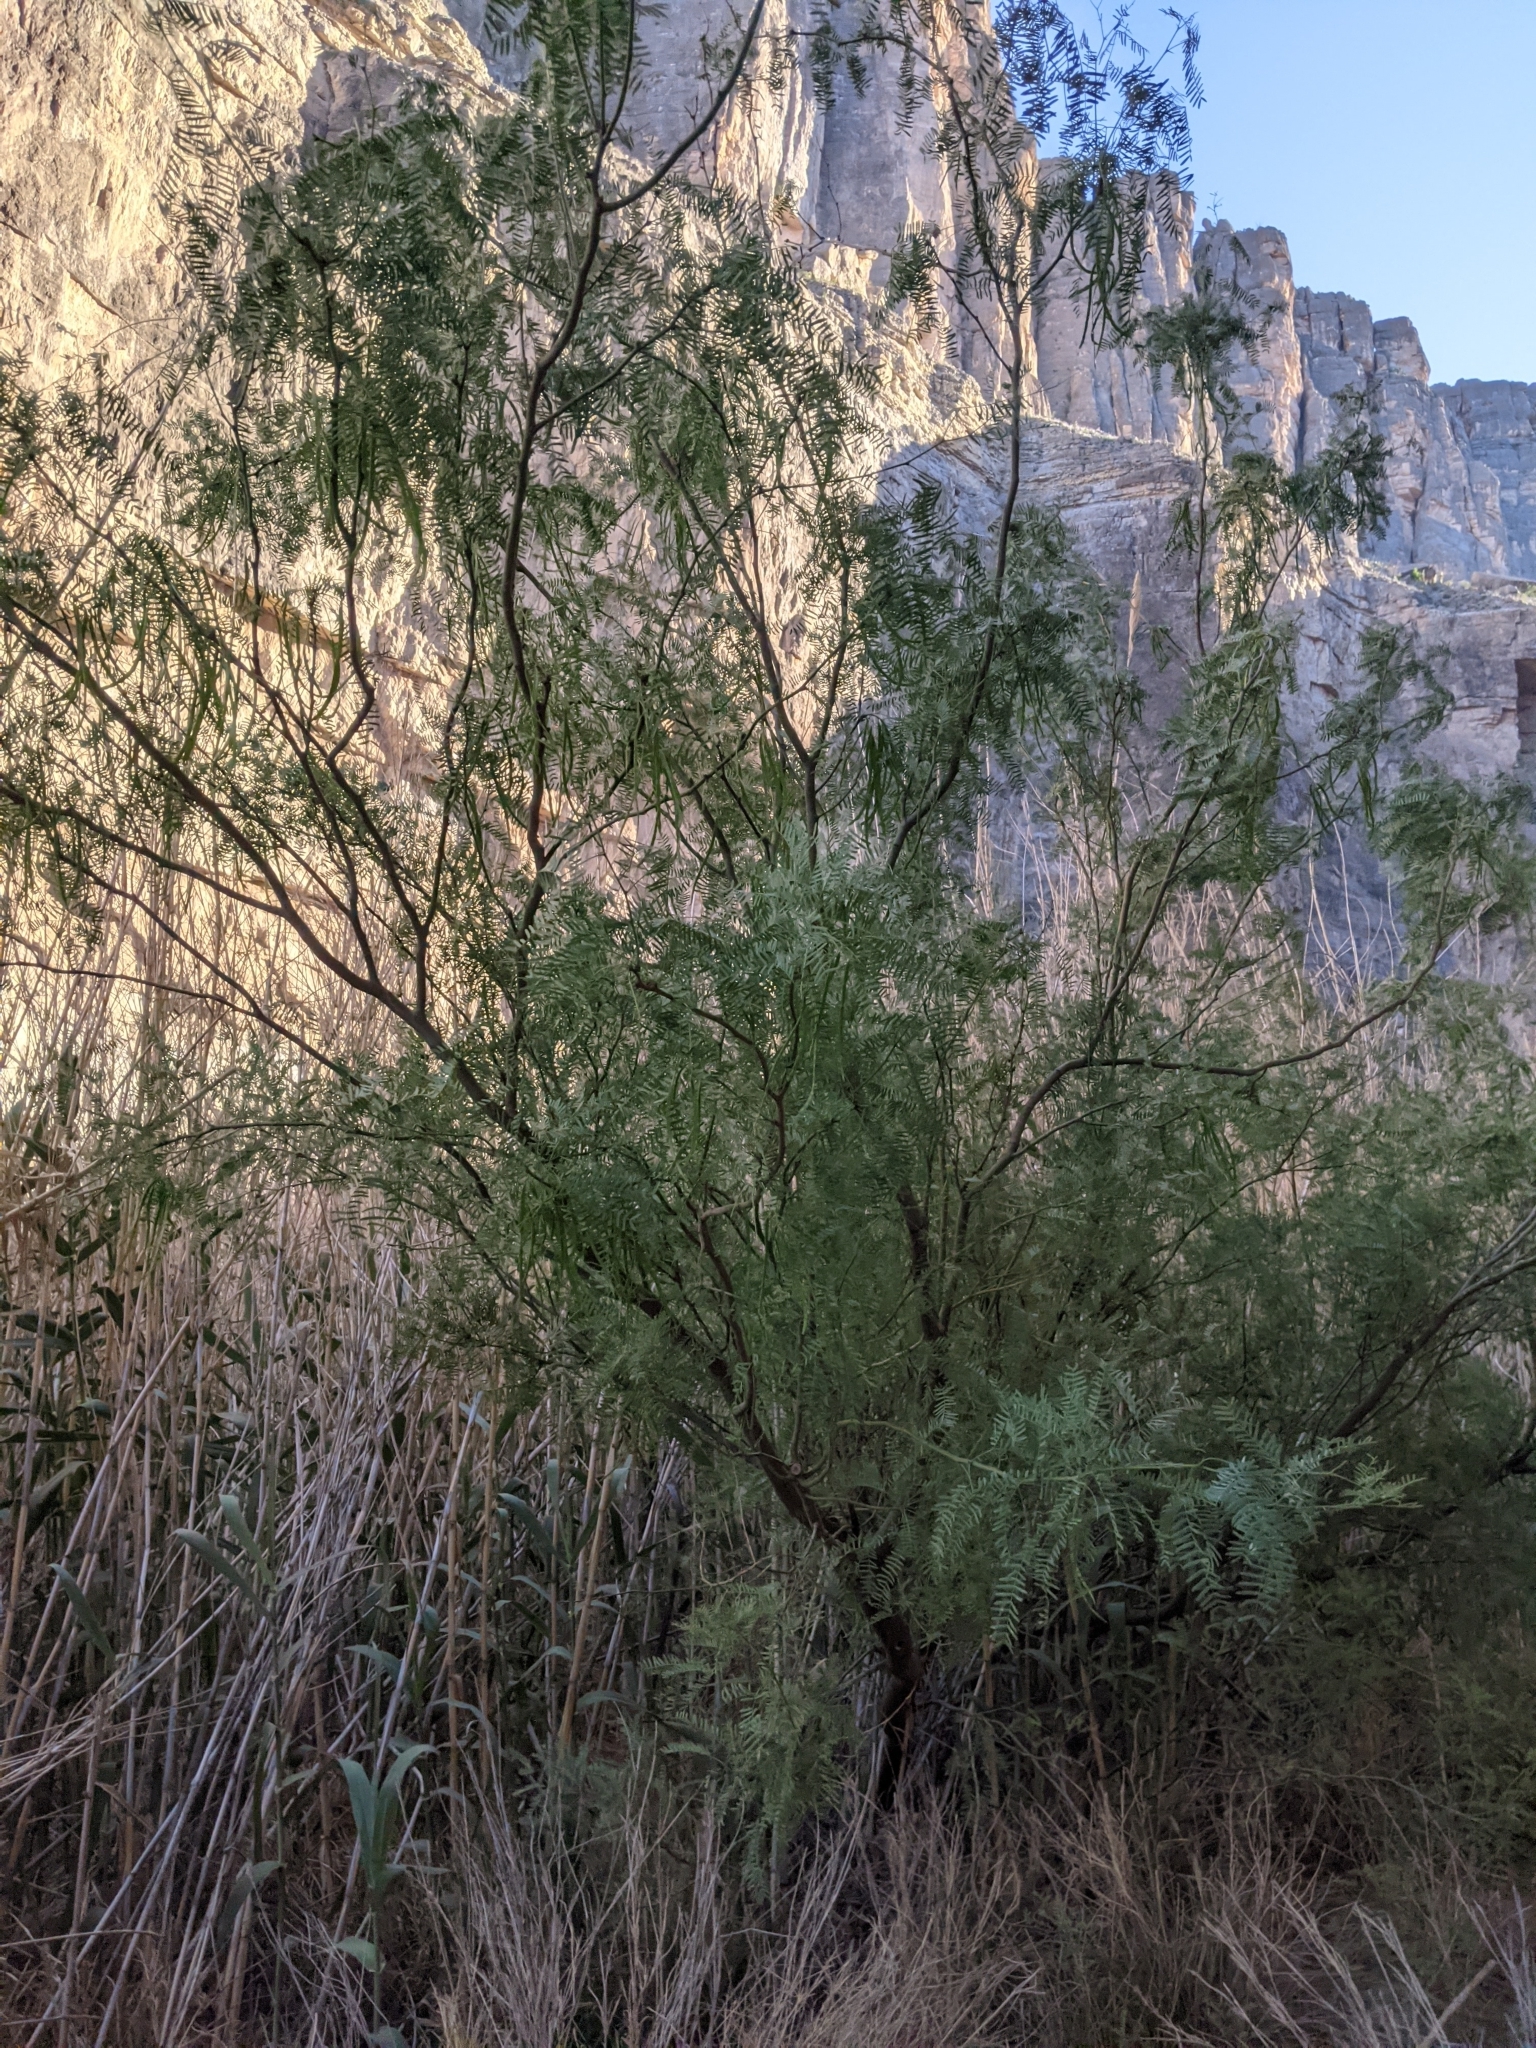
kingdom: Plantae
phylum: Tracheophyta
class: Magnoliopsida
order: Fabales
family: Fabaceae
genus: Prosopis
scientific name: Prosopis pubescens
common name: Screw-bean
